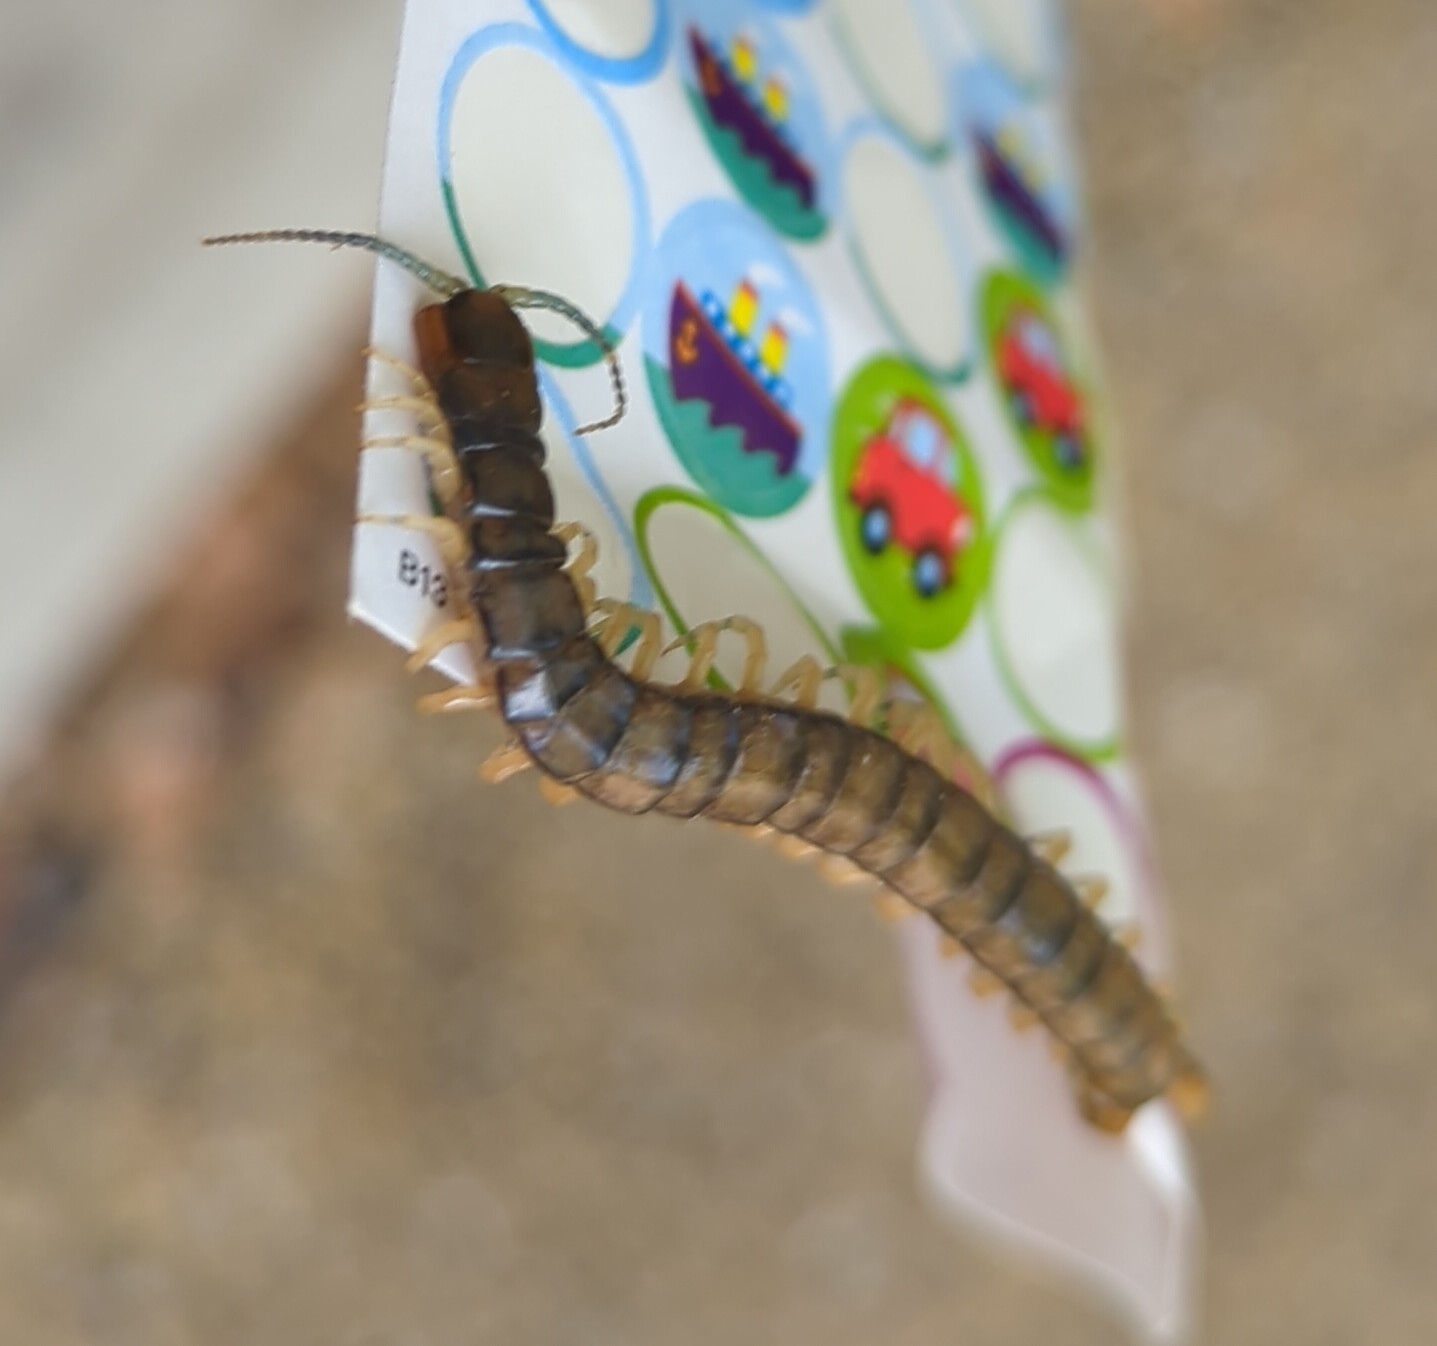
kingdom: Animalia
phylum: Arthropoda
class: Chilopoda
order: Scolopendromorpha
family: Scolopendridae
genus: Hemiscolopendra
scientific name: Hemiscolopendra marginata
